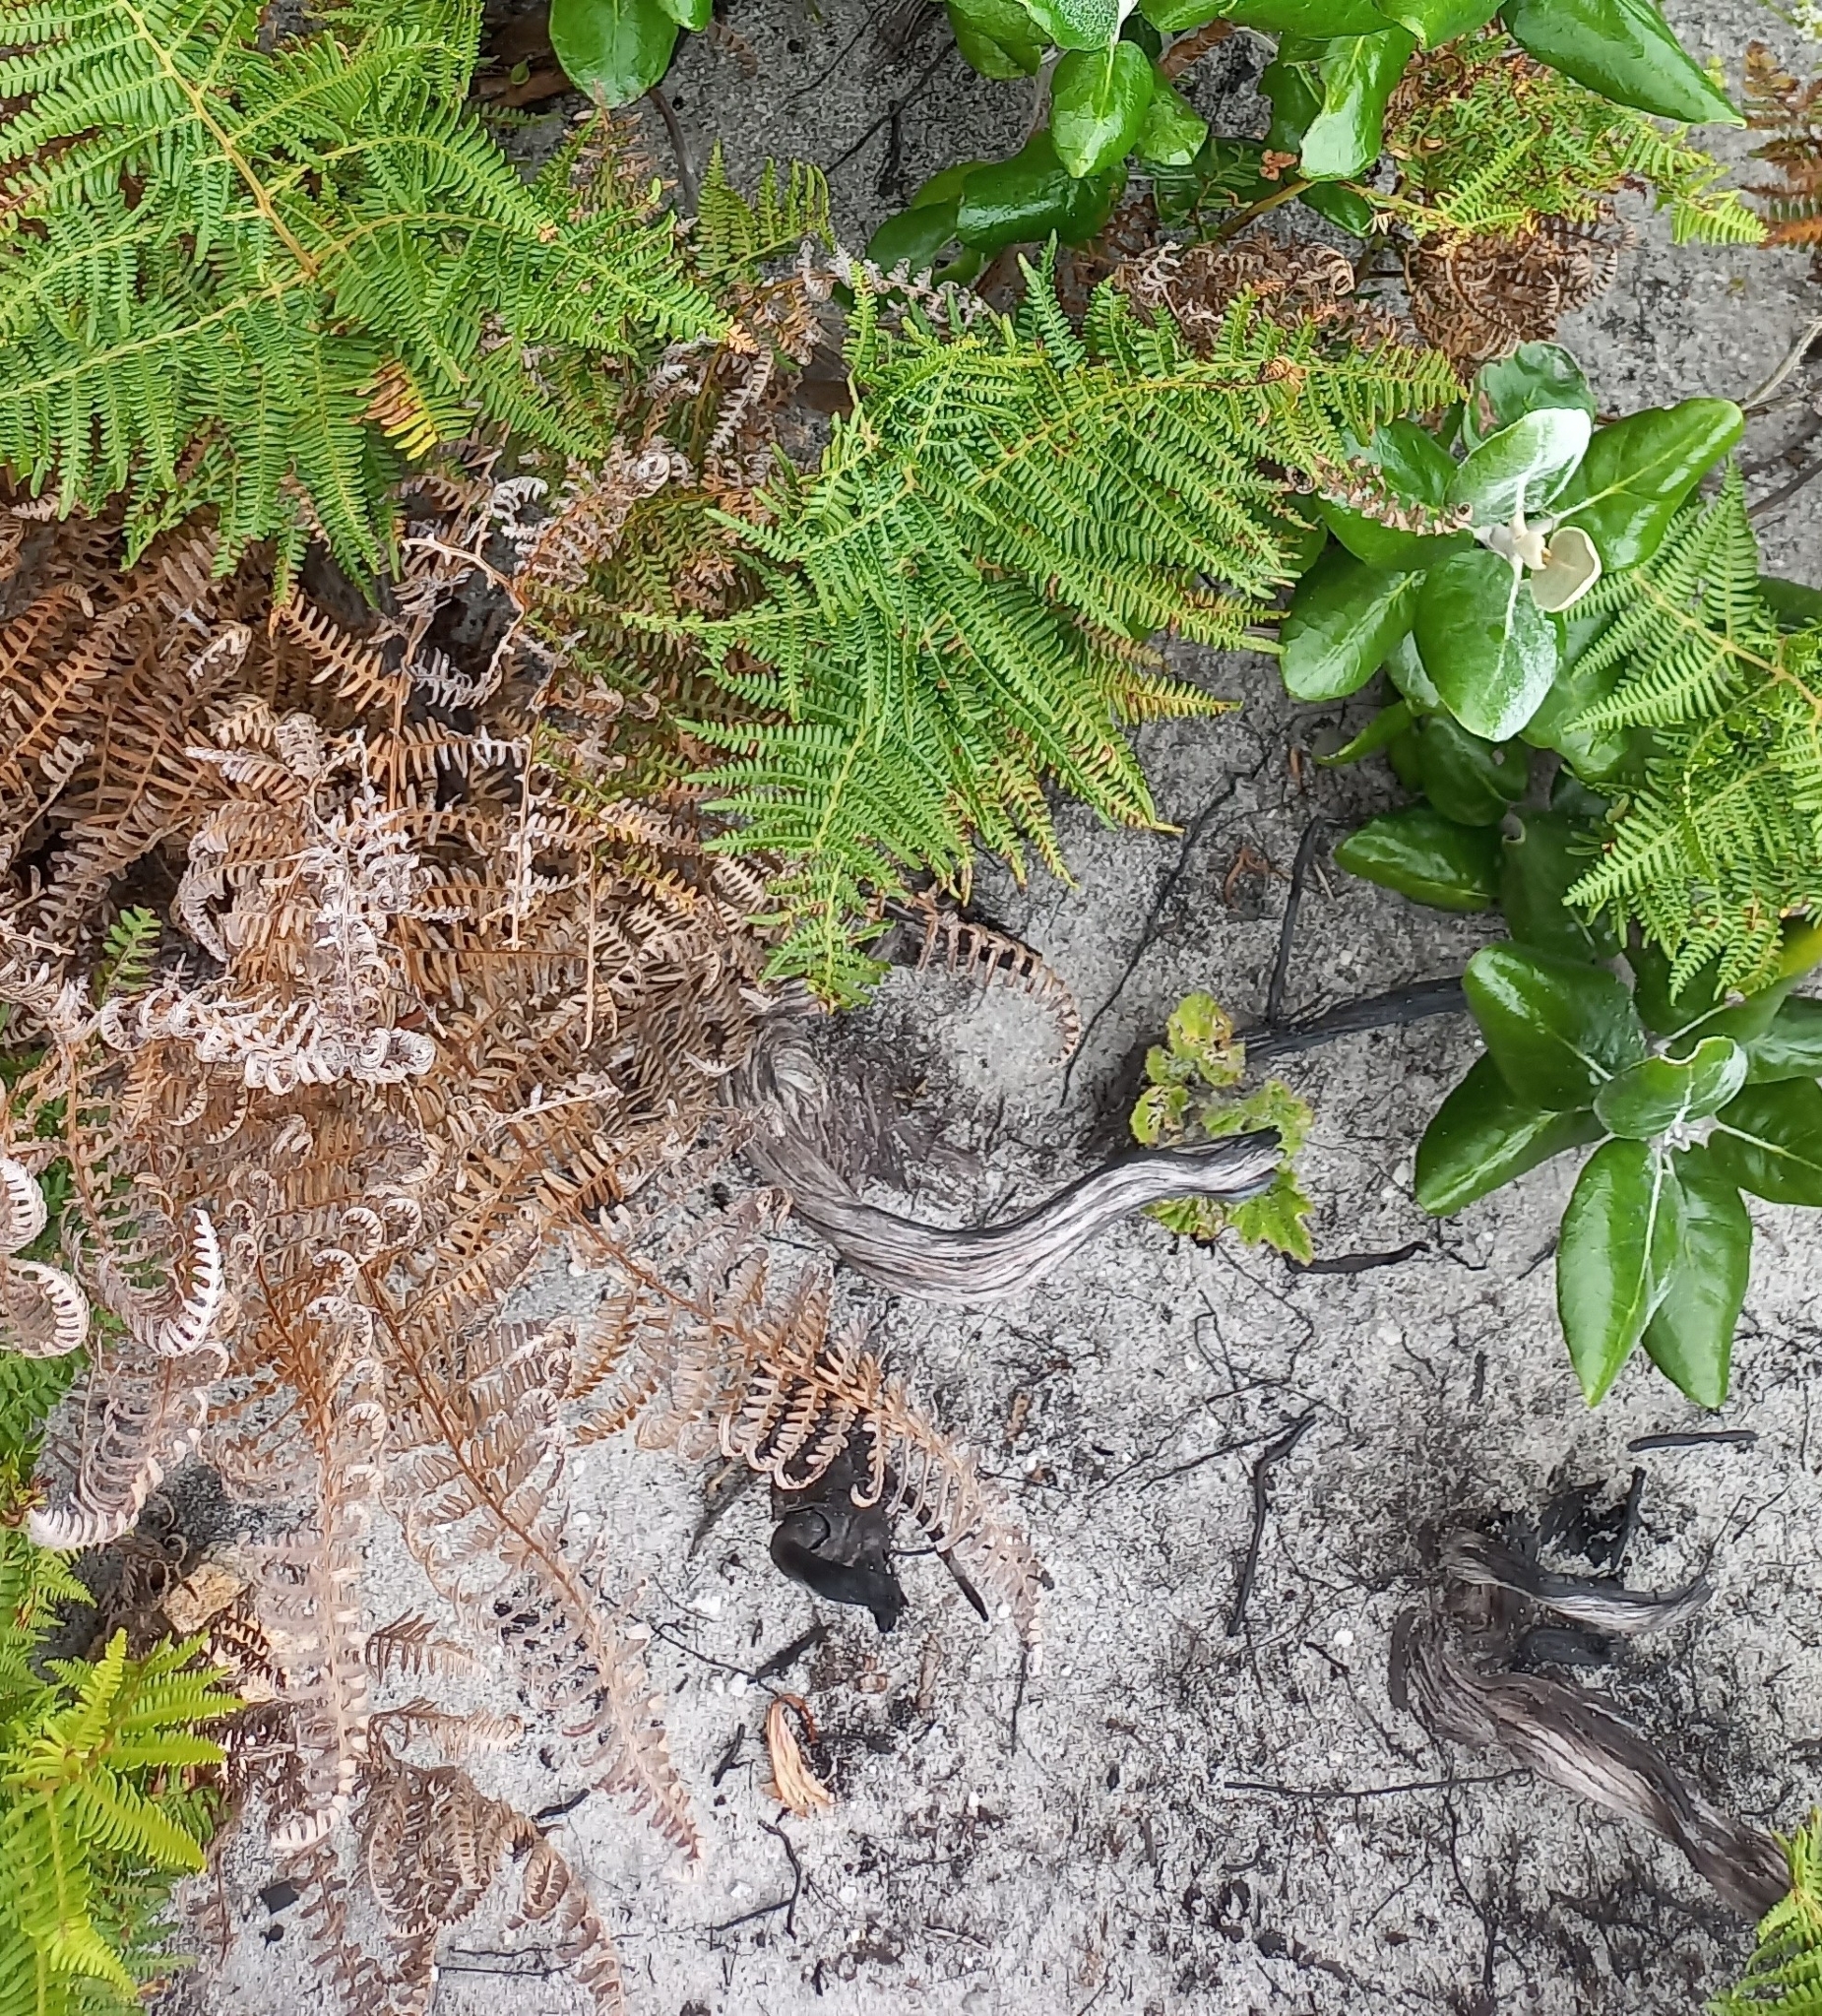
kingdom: Plantae
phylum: Tracheophyta
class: Polypodiopsida
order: Polypodiales
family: Dennstaedtiaceae
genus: Pteridium
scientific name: Pteridium aquilinum
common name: Bracken
